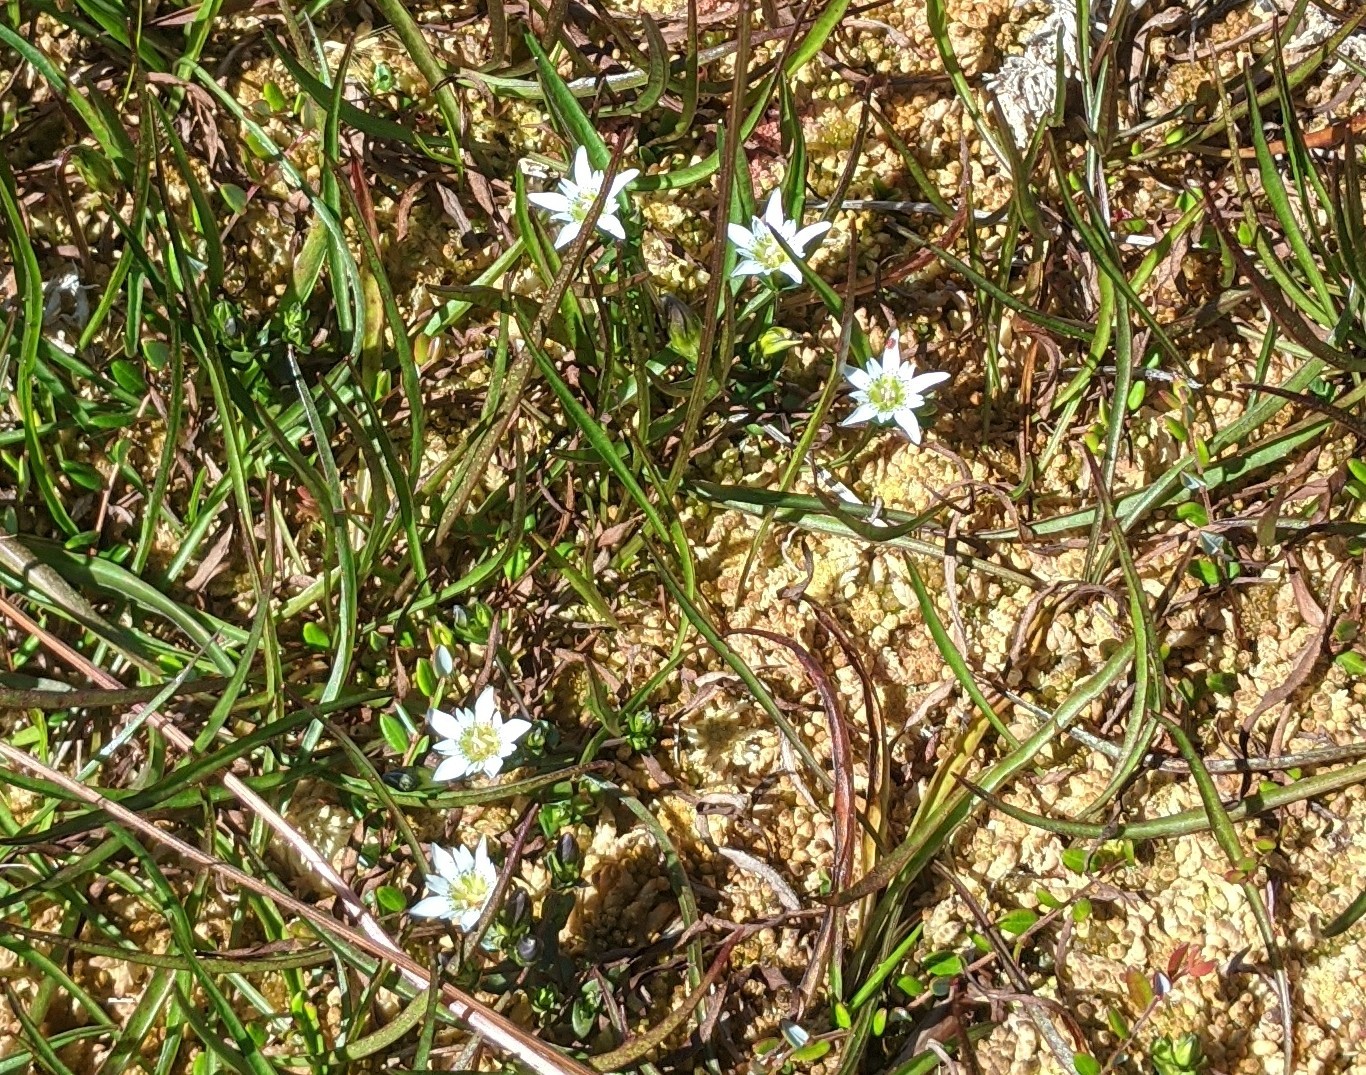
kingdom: Plantae
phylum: Tracheophyta
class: Magnoliopsida
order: Gentianales
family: Gentianaceae
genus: Gentiana
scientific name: Gentiana douglasiana
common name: Swamp gentian
